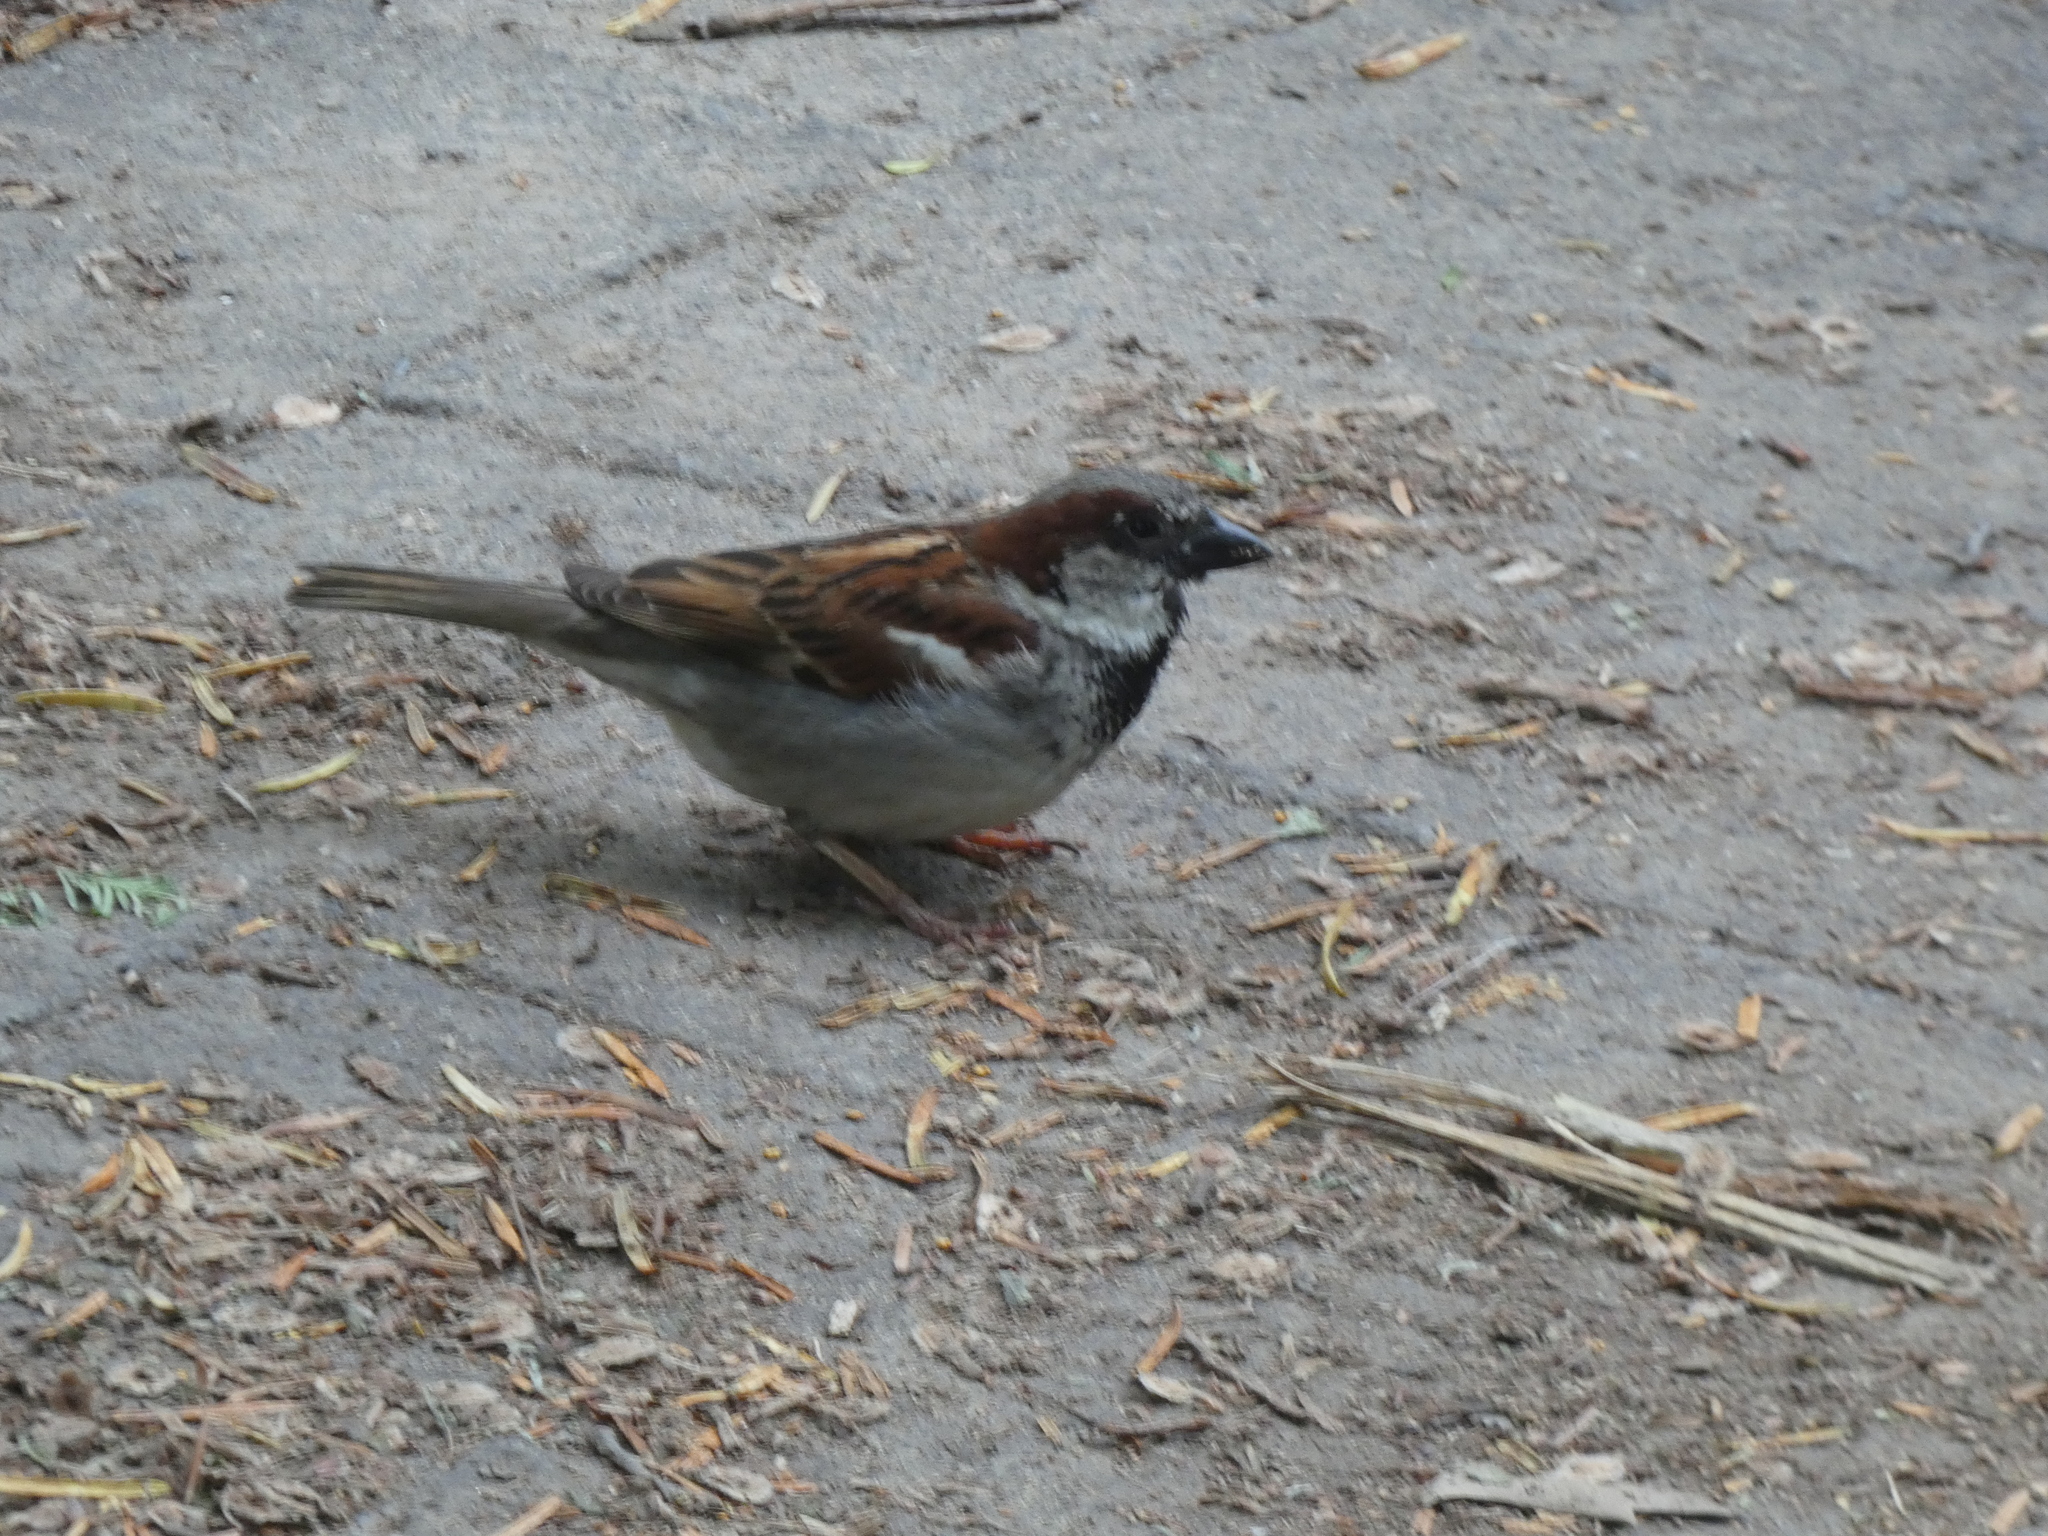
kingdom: Animalia
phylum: Chordata
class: Aves
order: Passeriformes
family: Passeridae
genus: Passer
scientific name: Passer domesticus
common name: House sparrow
